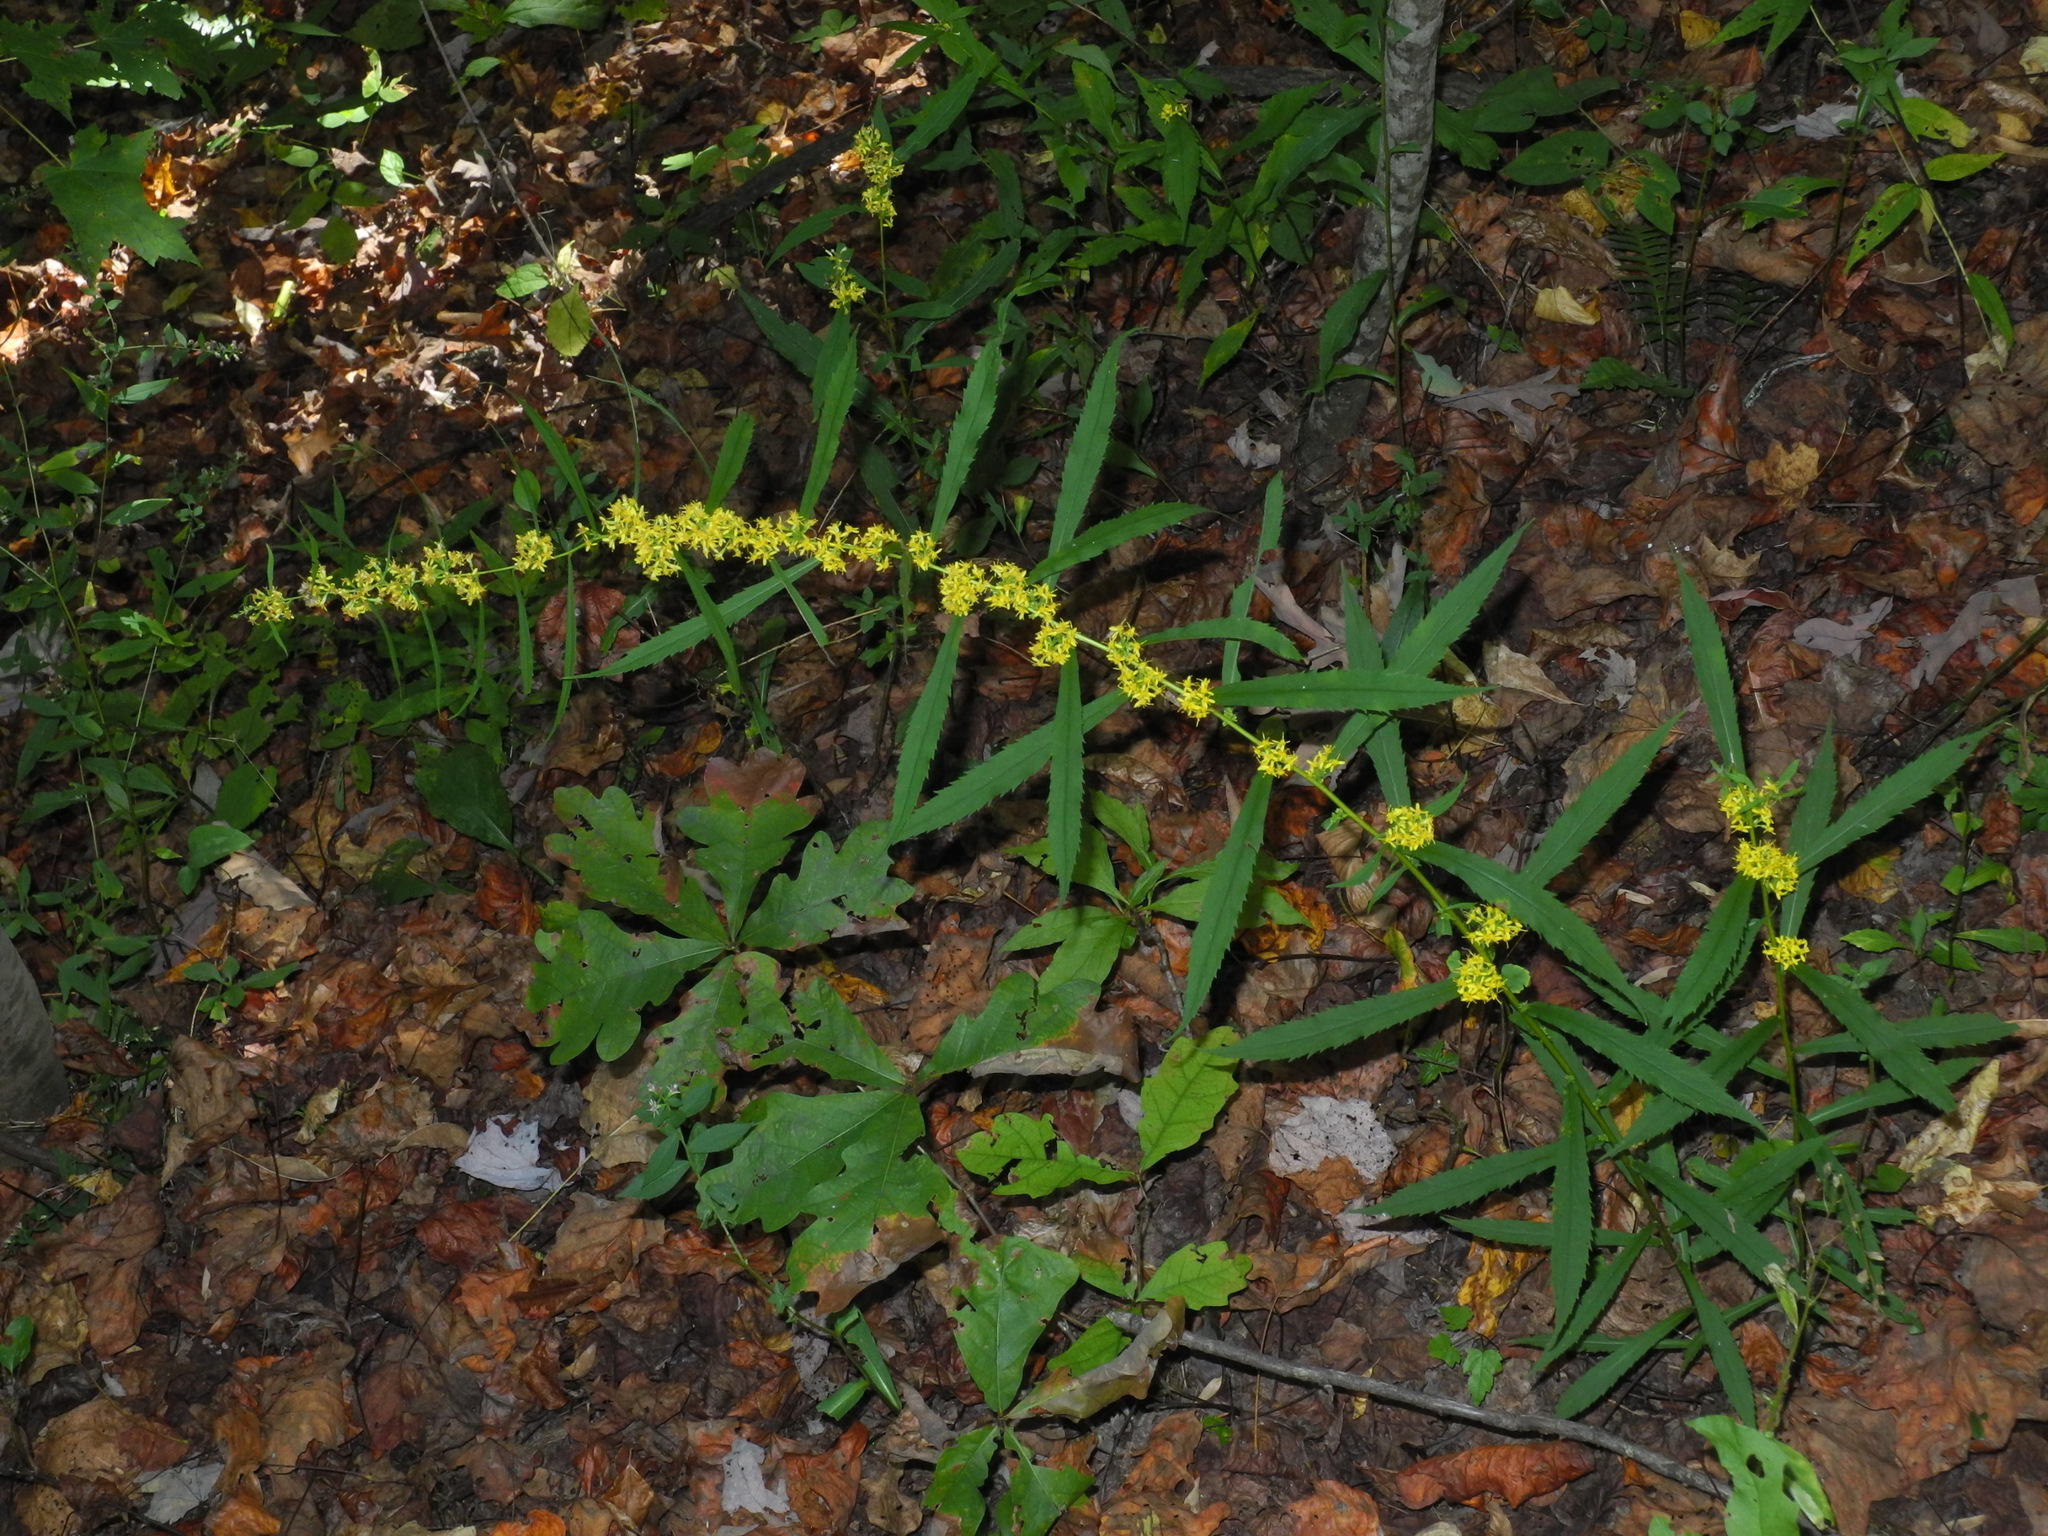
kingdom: Plantae
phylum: Tracheophyta
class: Magnoliopsida
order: Asterales
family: Asteraceae
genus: Solidago
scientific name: Solidago caesia
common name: Woodland goldenrod
